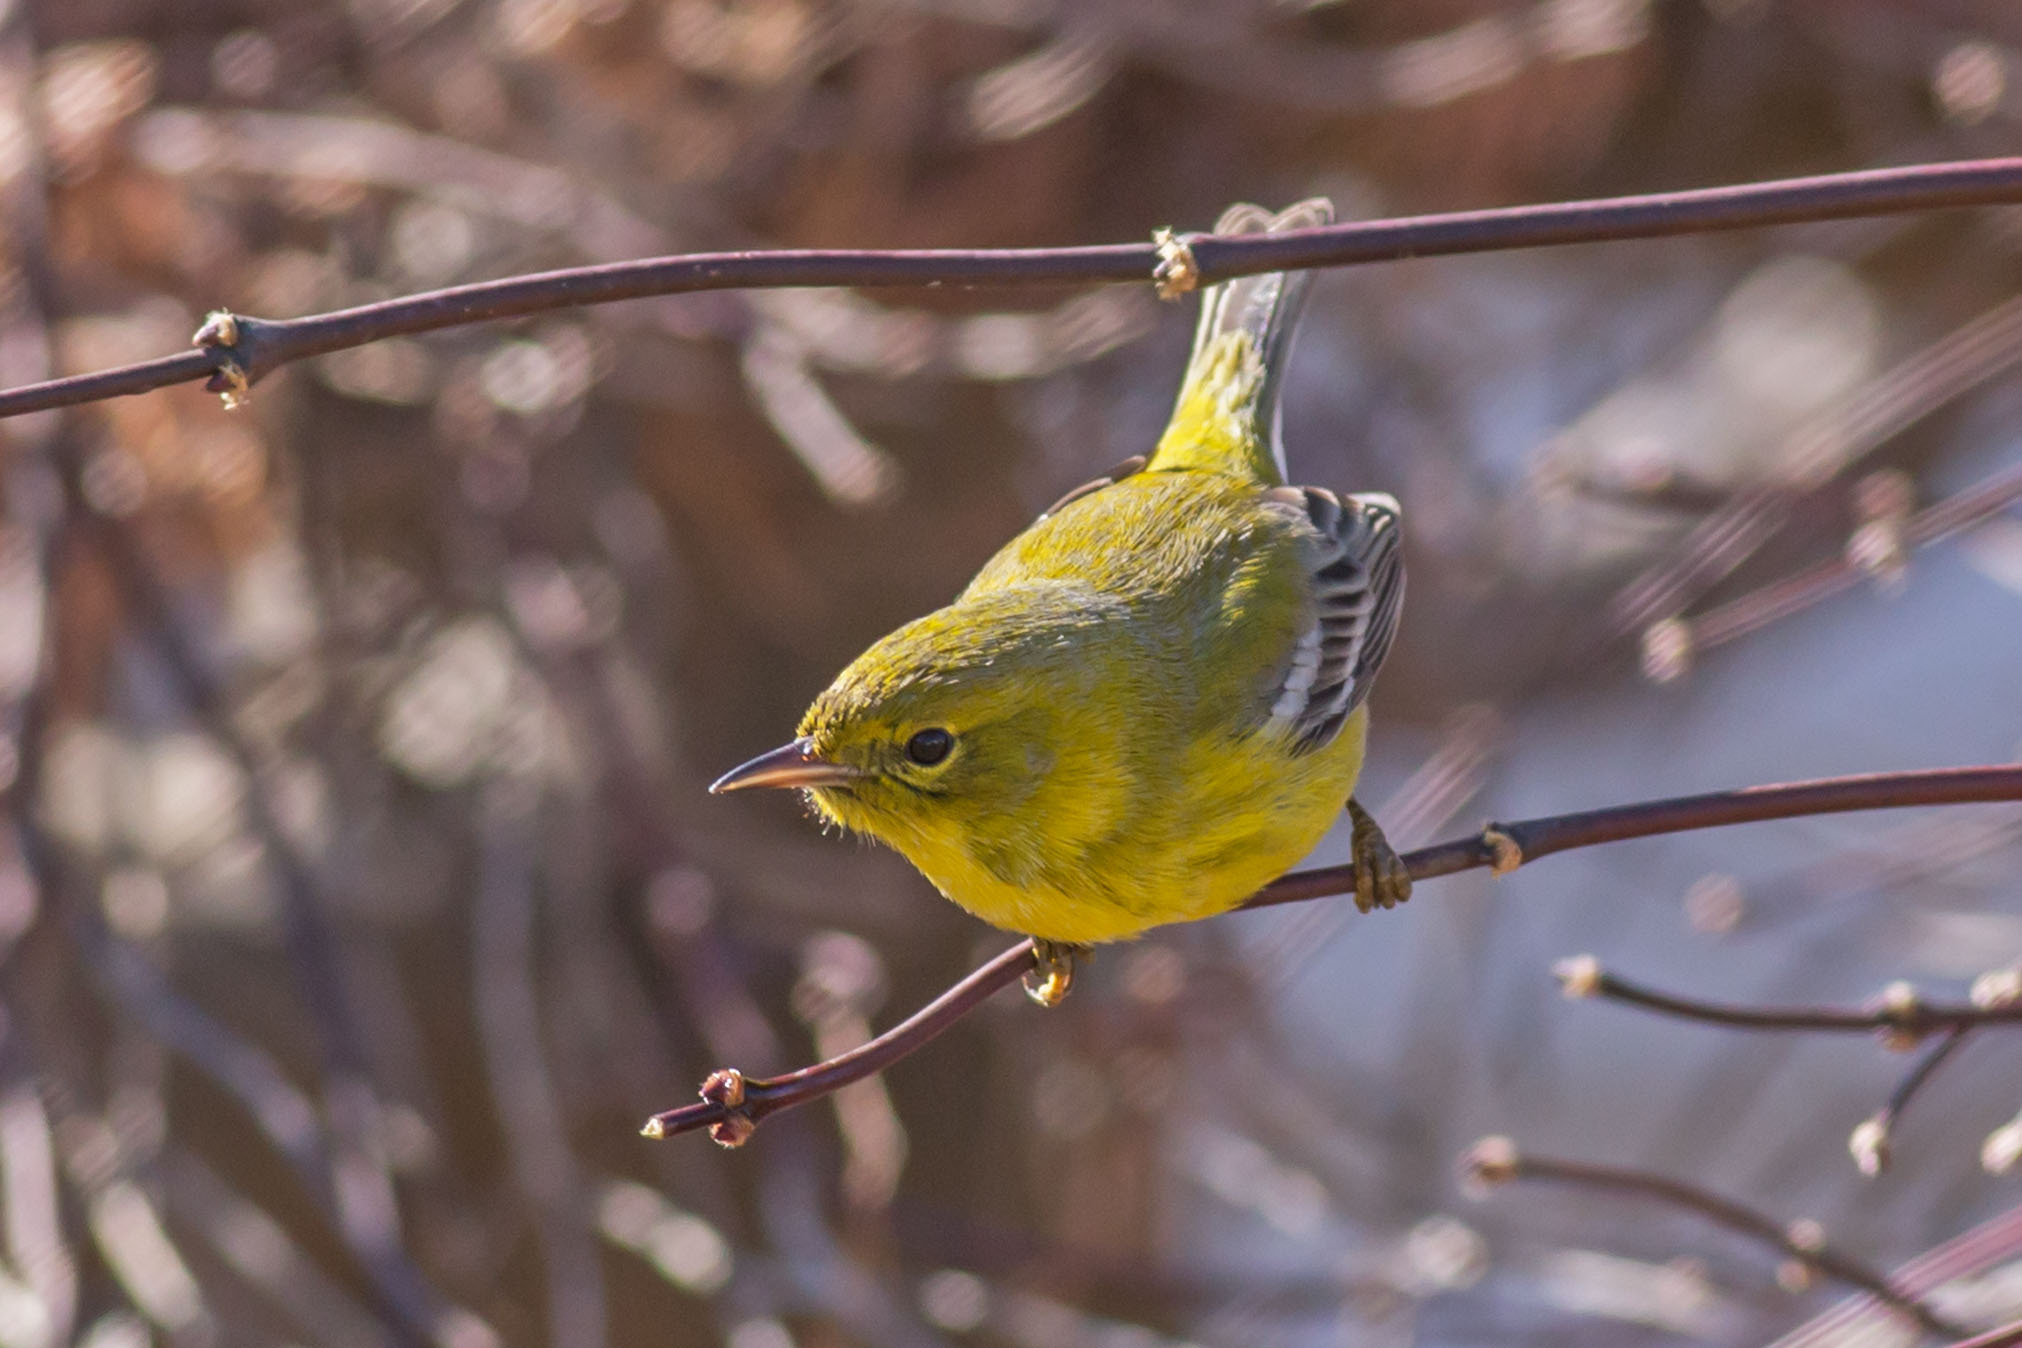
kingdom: Animalia
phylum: Chordata
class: Aves
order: Passeriformes
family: Parulidae
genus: Setophaga
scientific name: Setophaga pinus
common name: Pine warbler
